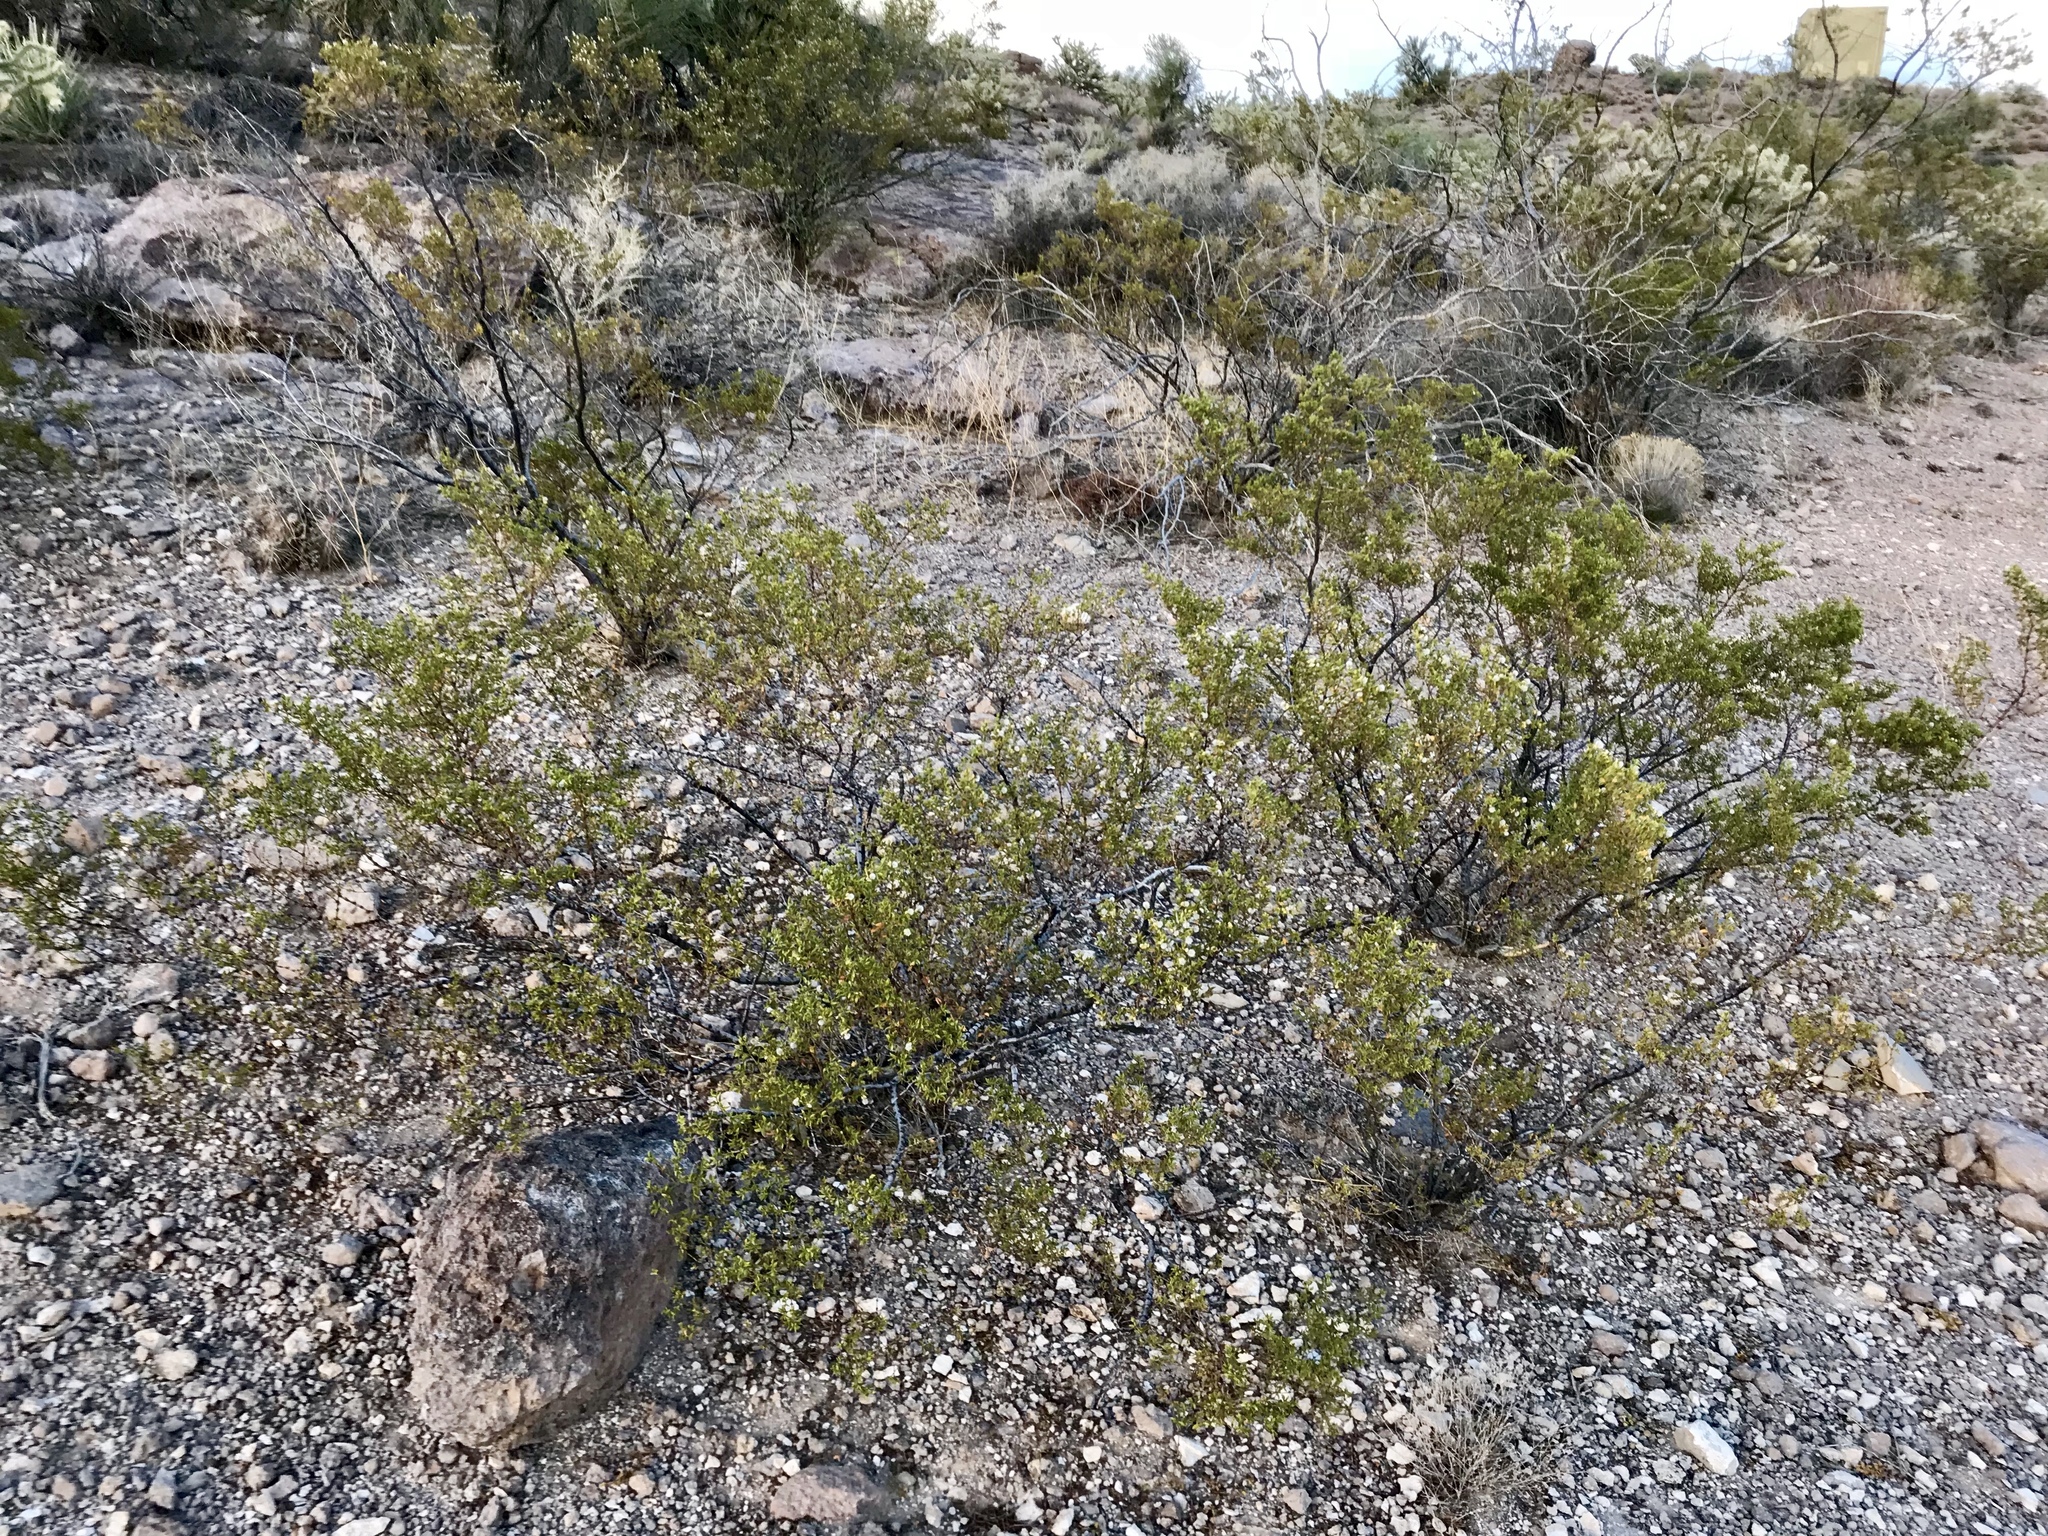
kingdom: Plantae
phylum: Tracheophyta
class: Magnoliopsida
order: Zygophyllales
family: Zygophyllaceae
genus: Larrea
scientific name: Larrea tridentata
